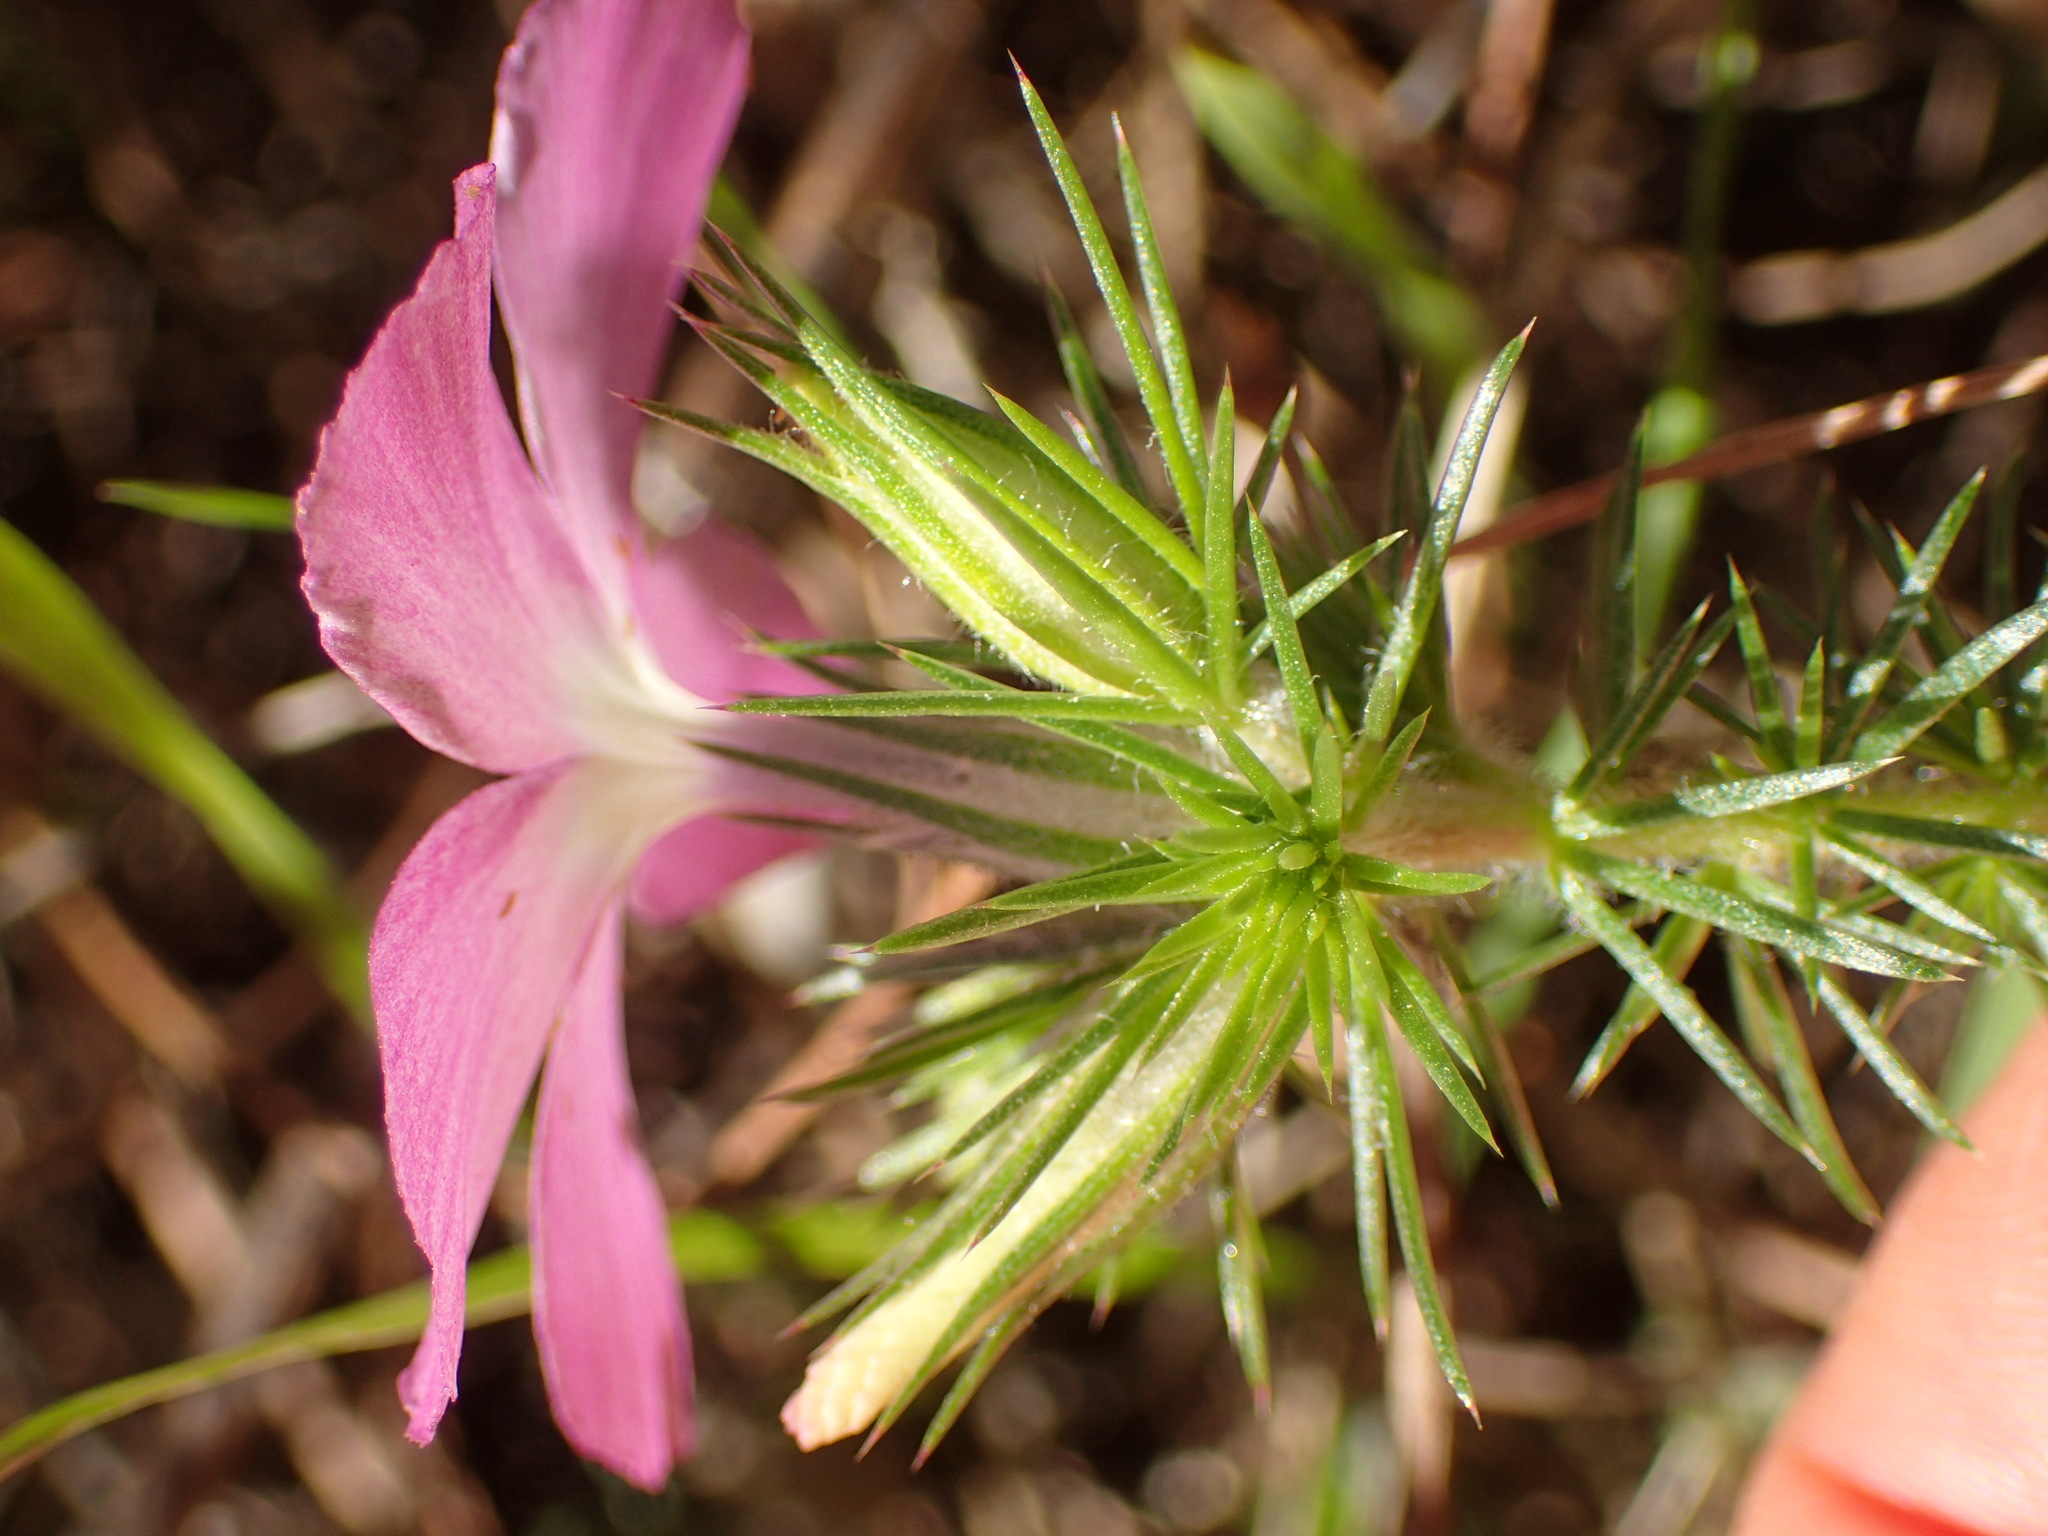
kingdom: Plantae
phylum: Tracheophyta
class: Magnoliopsida
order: Ericales
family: Polemoniaceae
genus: Linanthus
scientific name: Linanthus californicus
